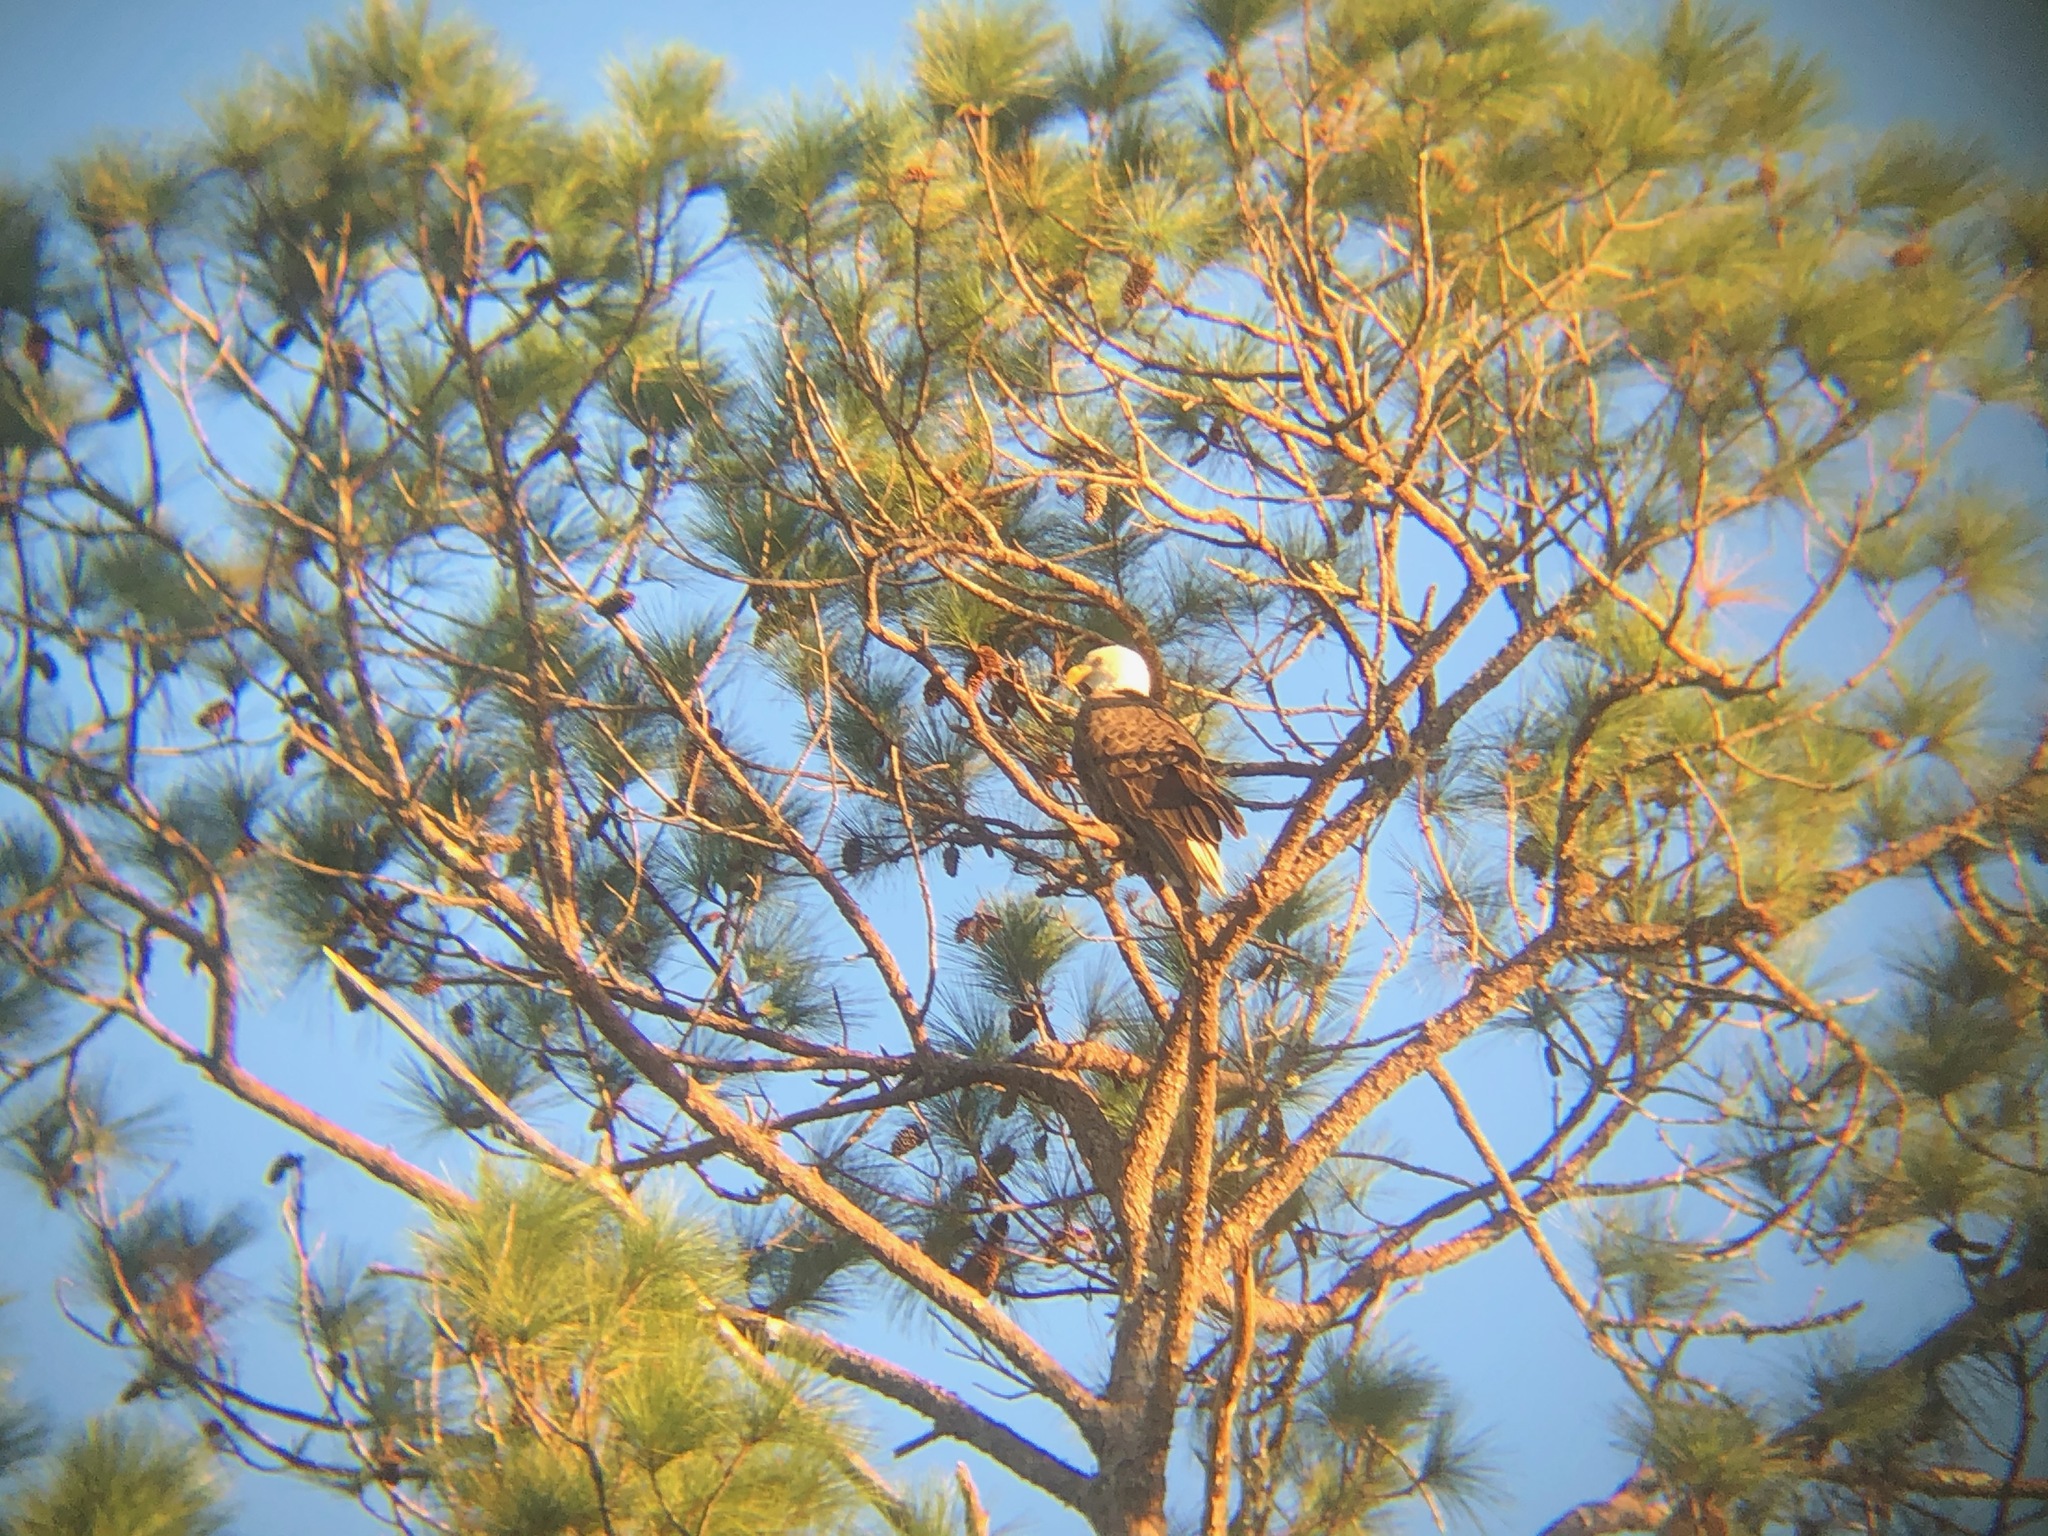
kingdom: Animalia
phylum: Chordata
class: Aves
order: Accipitriformes
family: Accipitridae
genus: Haliaeetus
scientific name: Haliaeetus leucocephalus
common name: Bald eagle
